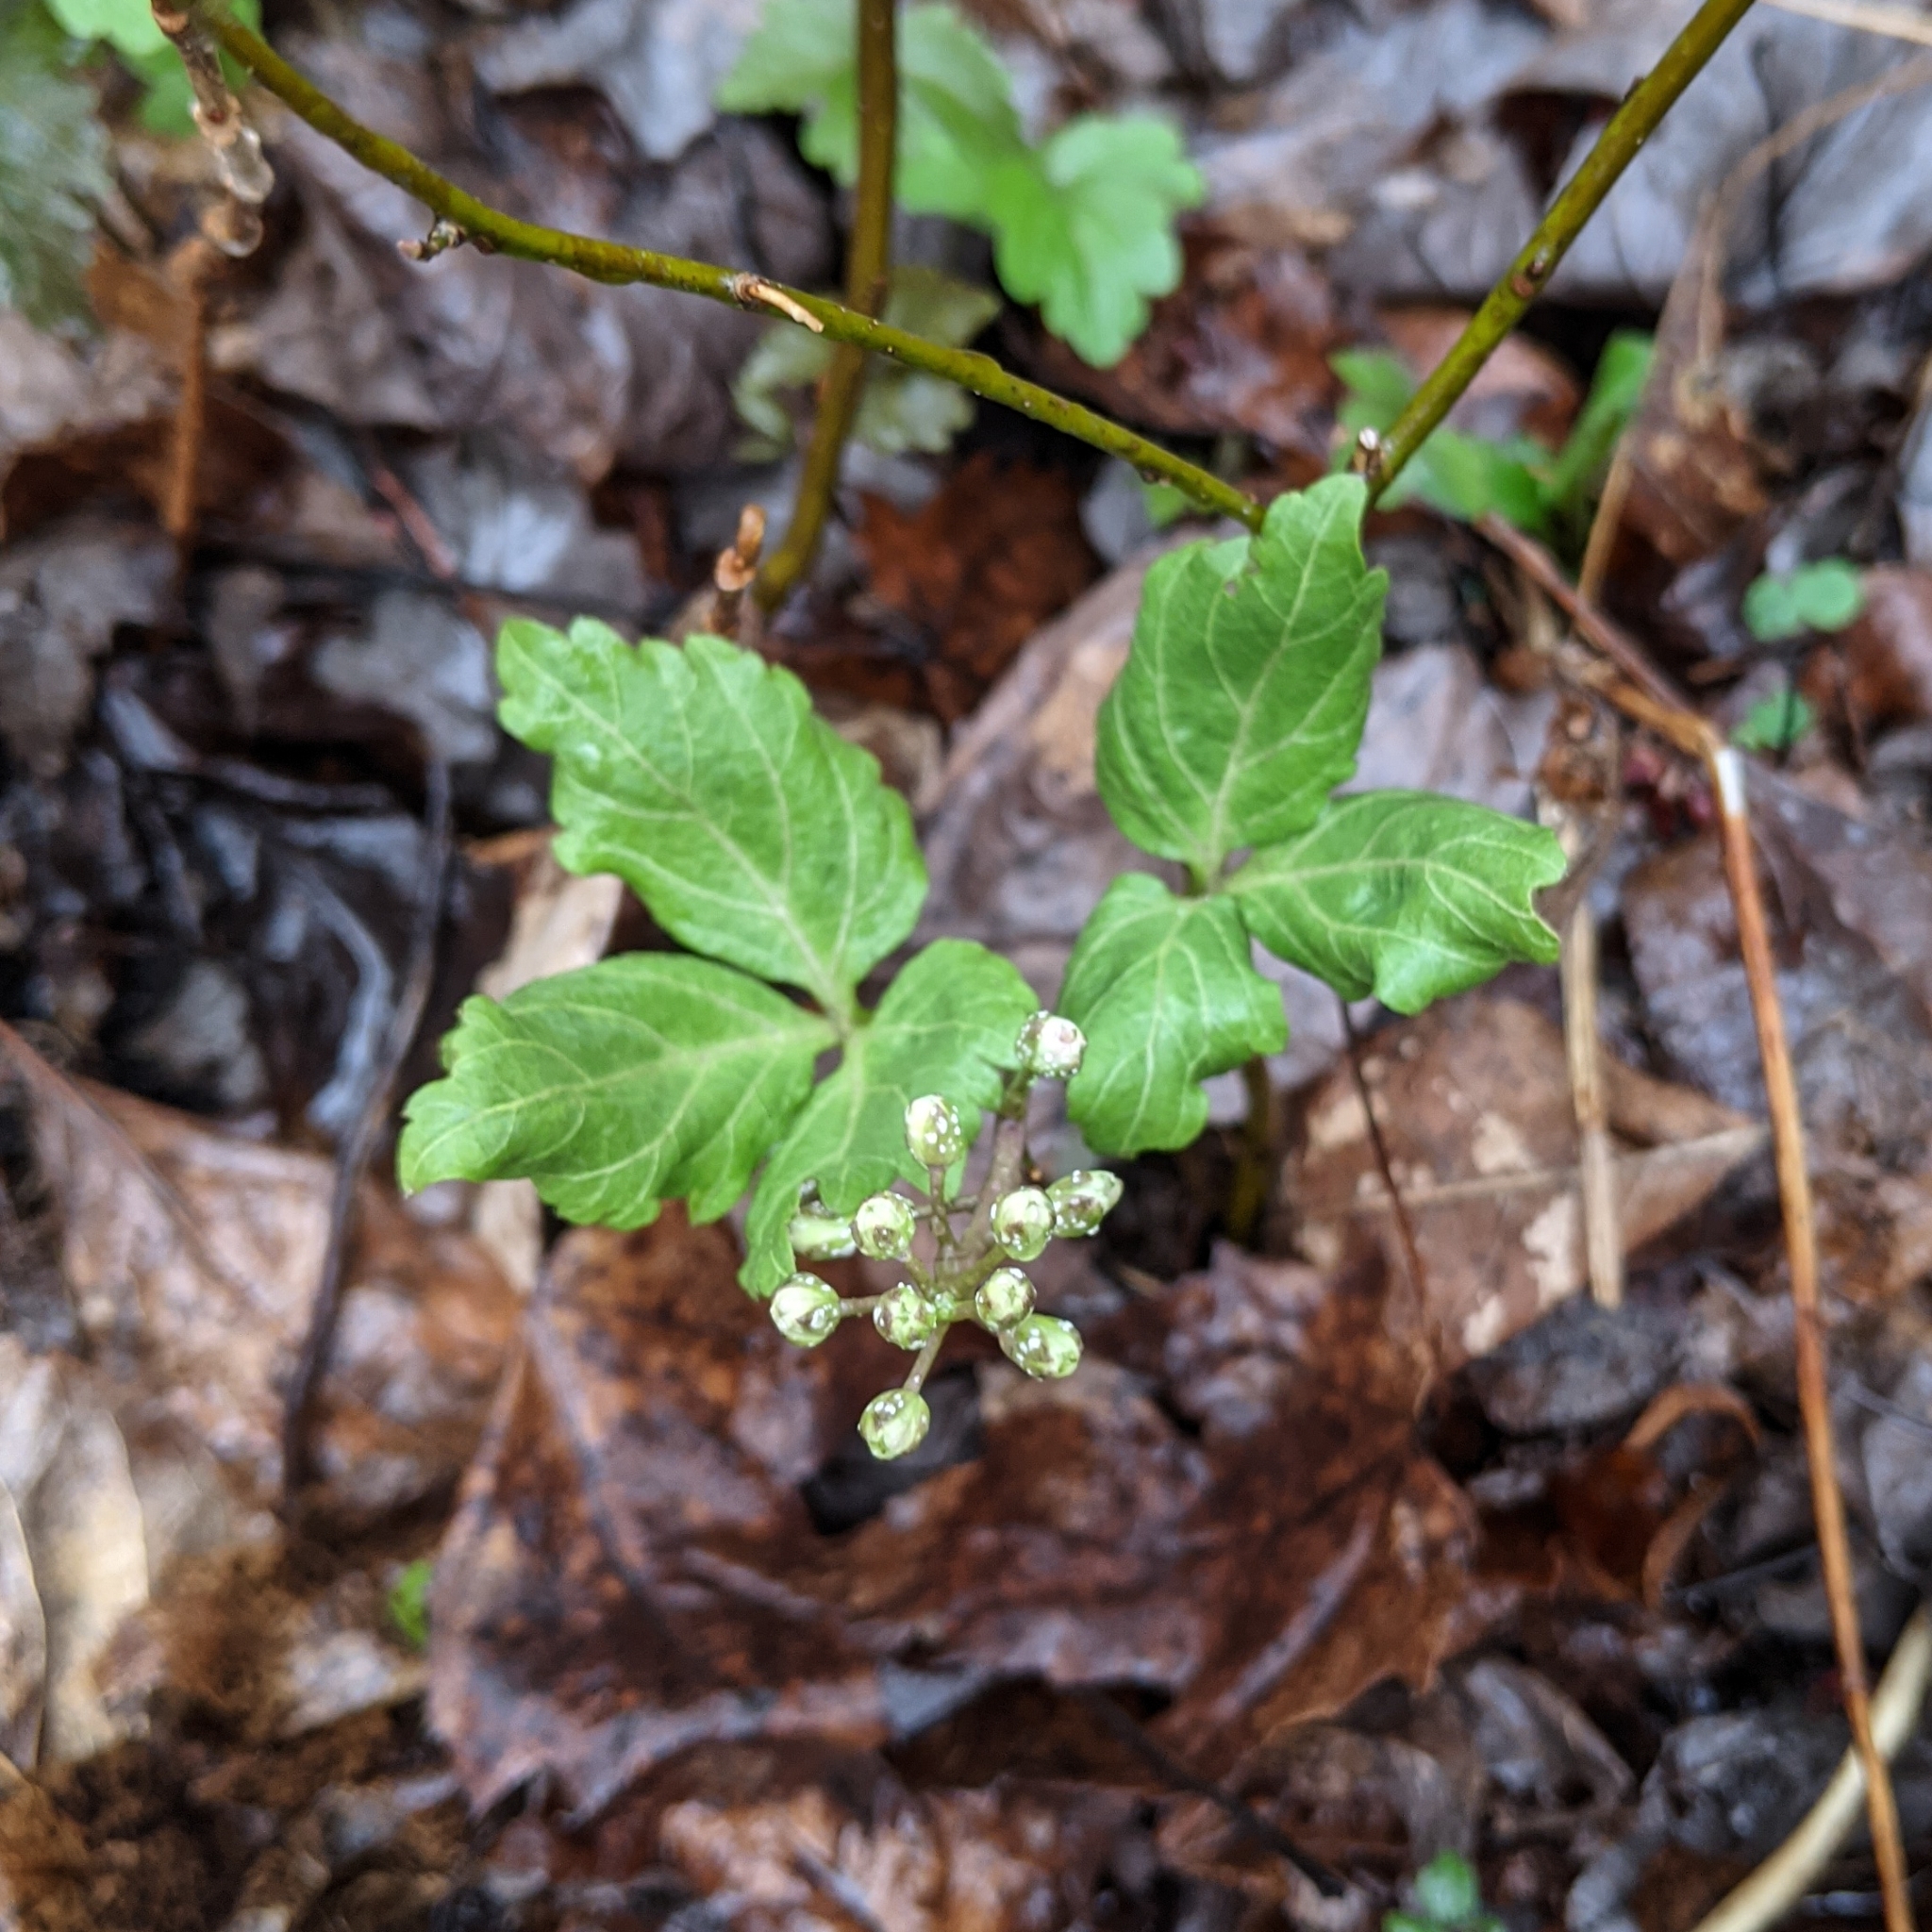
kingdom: Plantae
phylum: Tracheophyta
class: Magnoliopsida
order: Brassicales
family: Brassicaceae
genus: Cardamine
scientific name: Cardamine diphylla
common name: Broad-leaved toothwort
